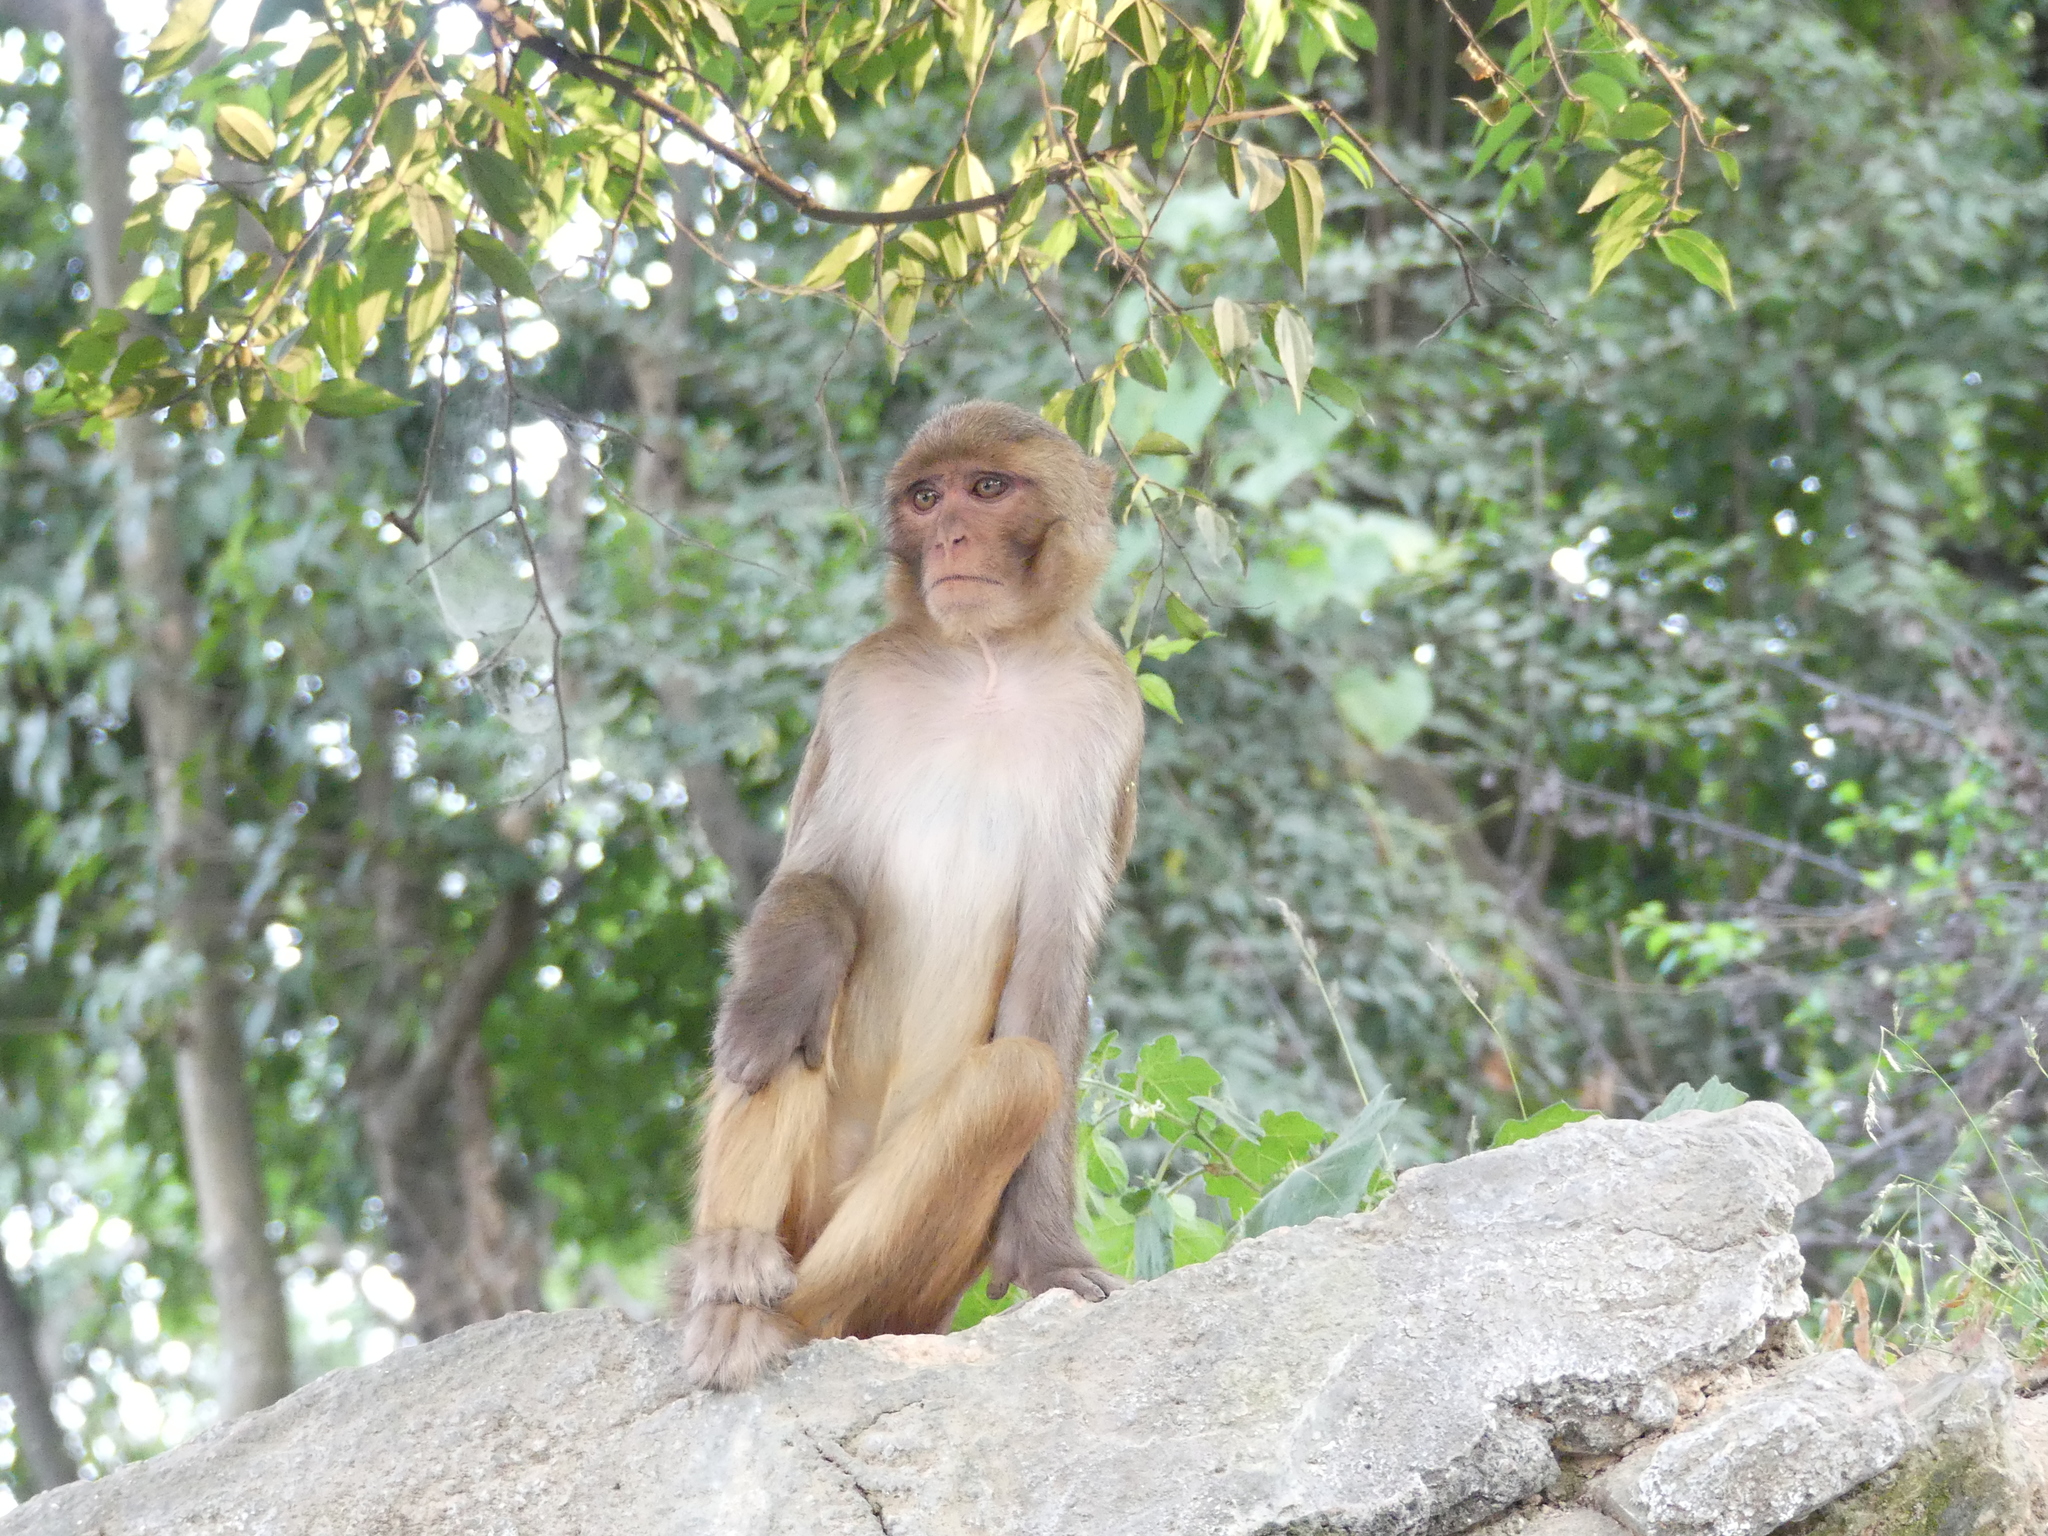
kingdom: Animalia
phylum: Chordata
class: Mammalia
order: Primates
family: Cercopithecidae
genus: Macaca
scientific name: Macaca mulatta
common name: Rhesus monkey
